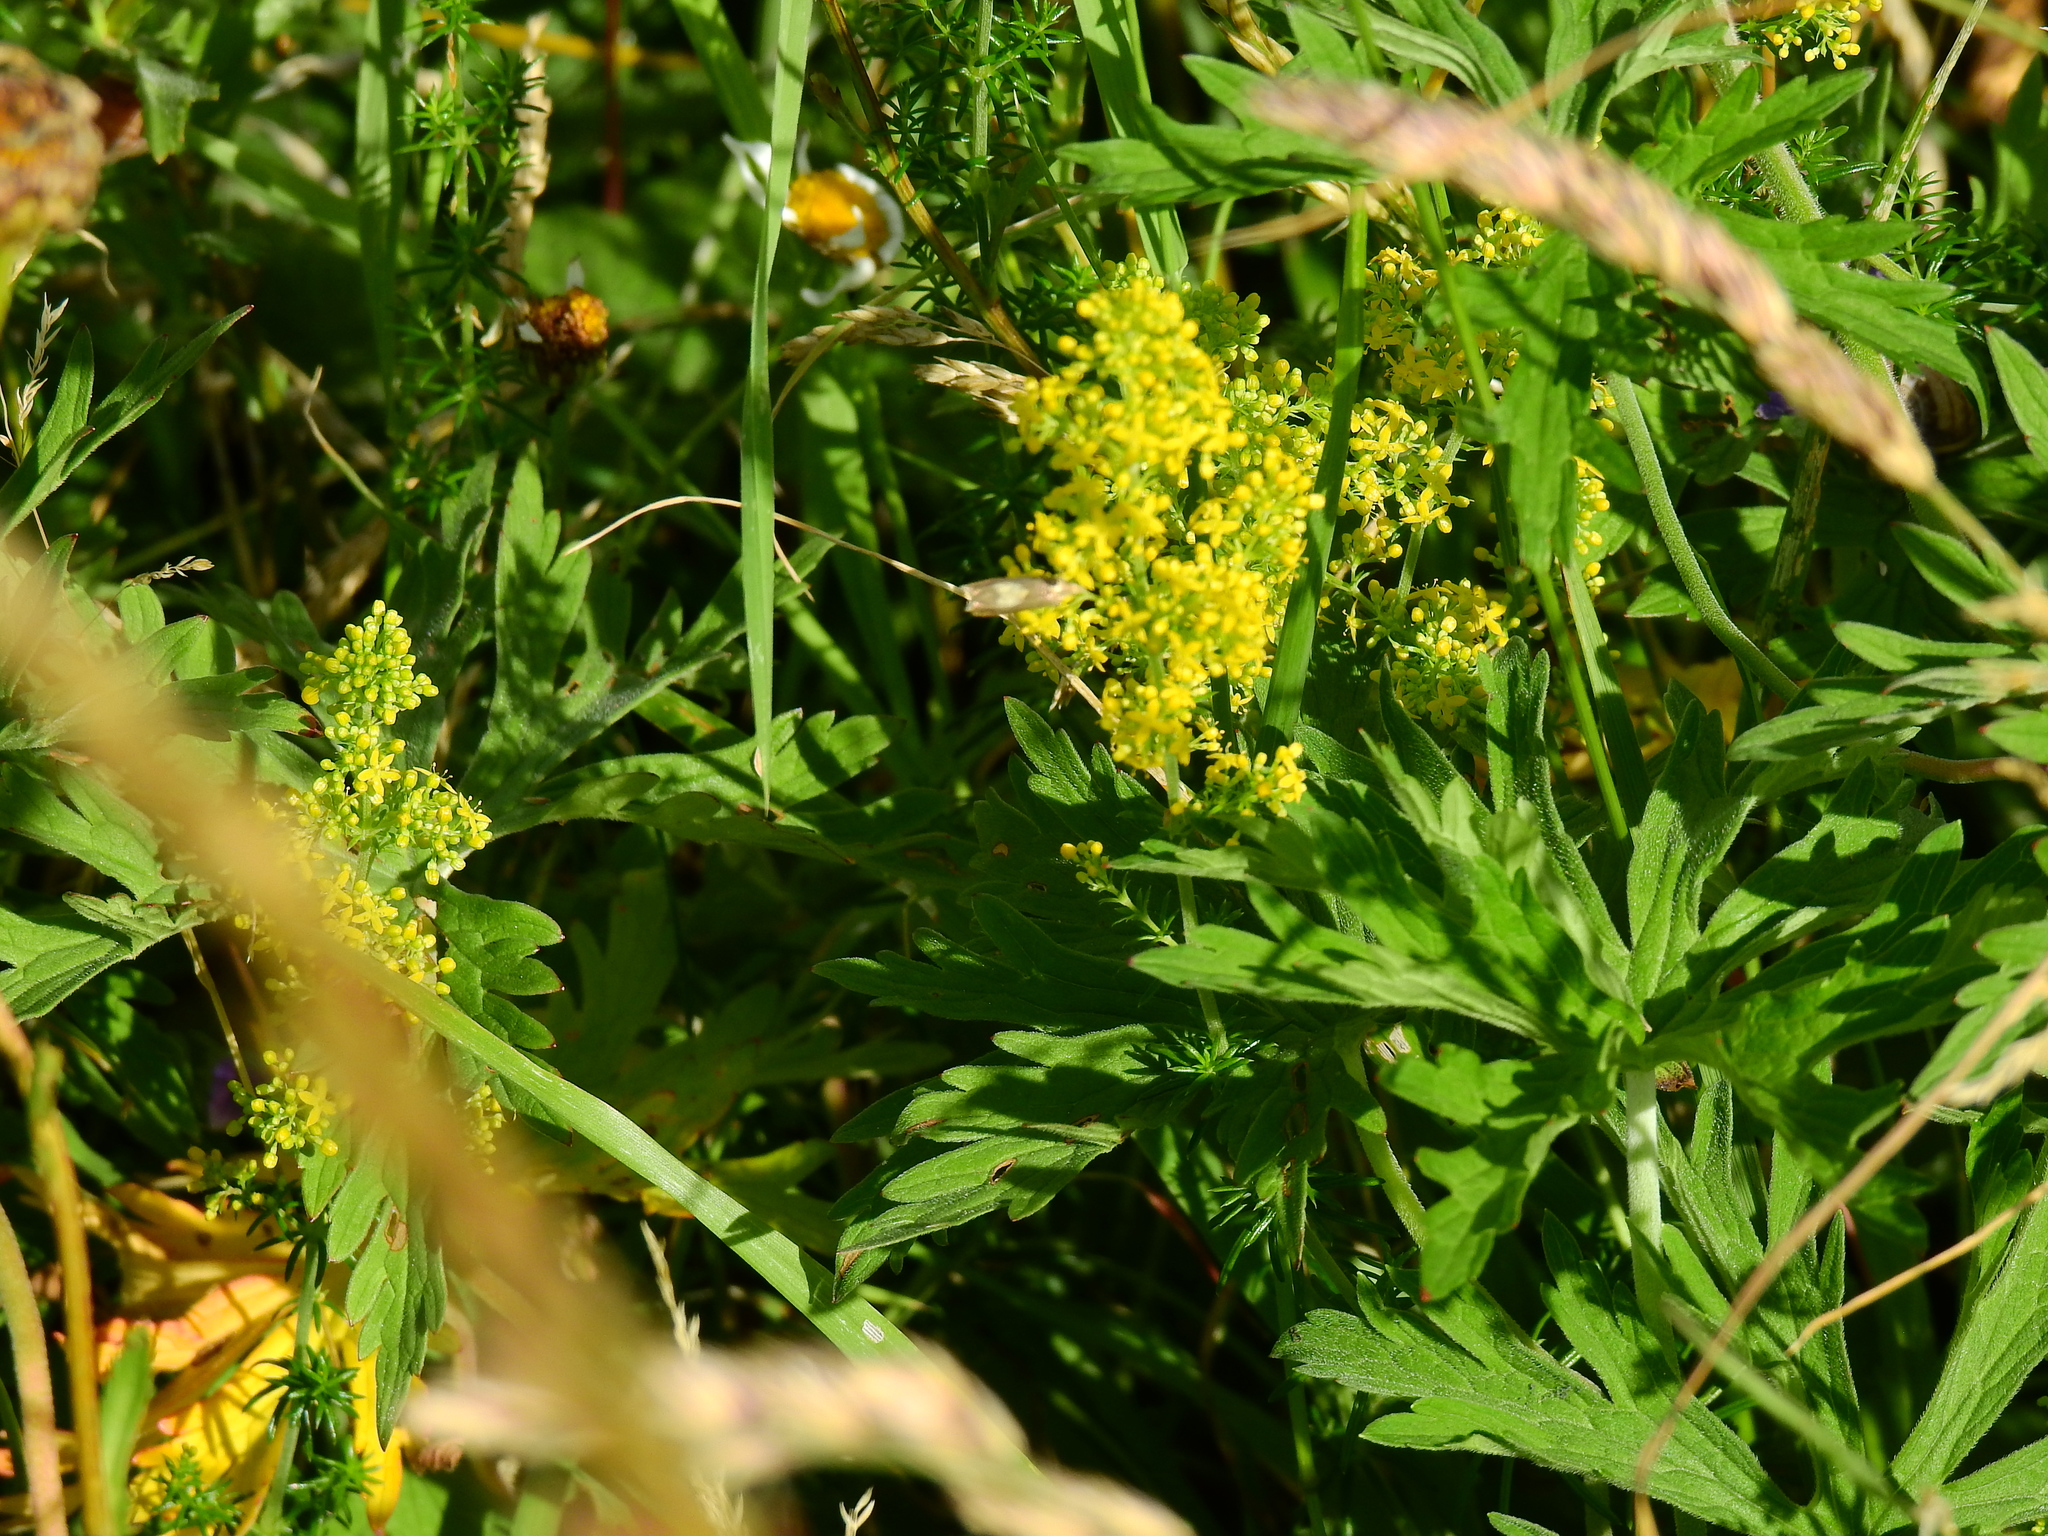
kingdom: Plantae
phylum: Tracheophyta
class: Magnoliopsida
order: Gentianales
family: Rubiaceae
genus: Galium
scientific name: Galium verum
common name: Lady's bedstraw
